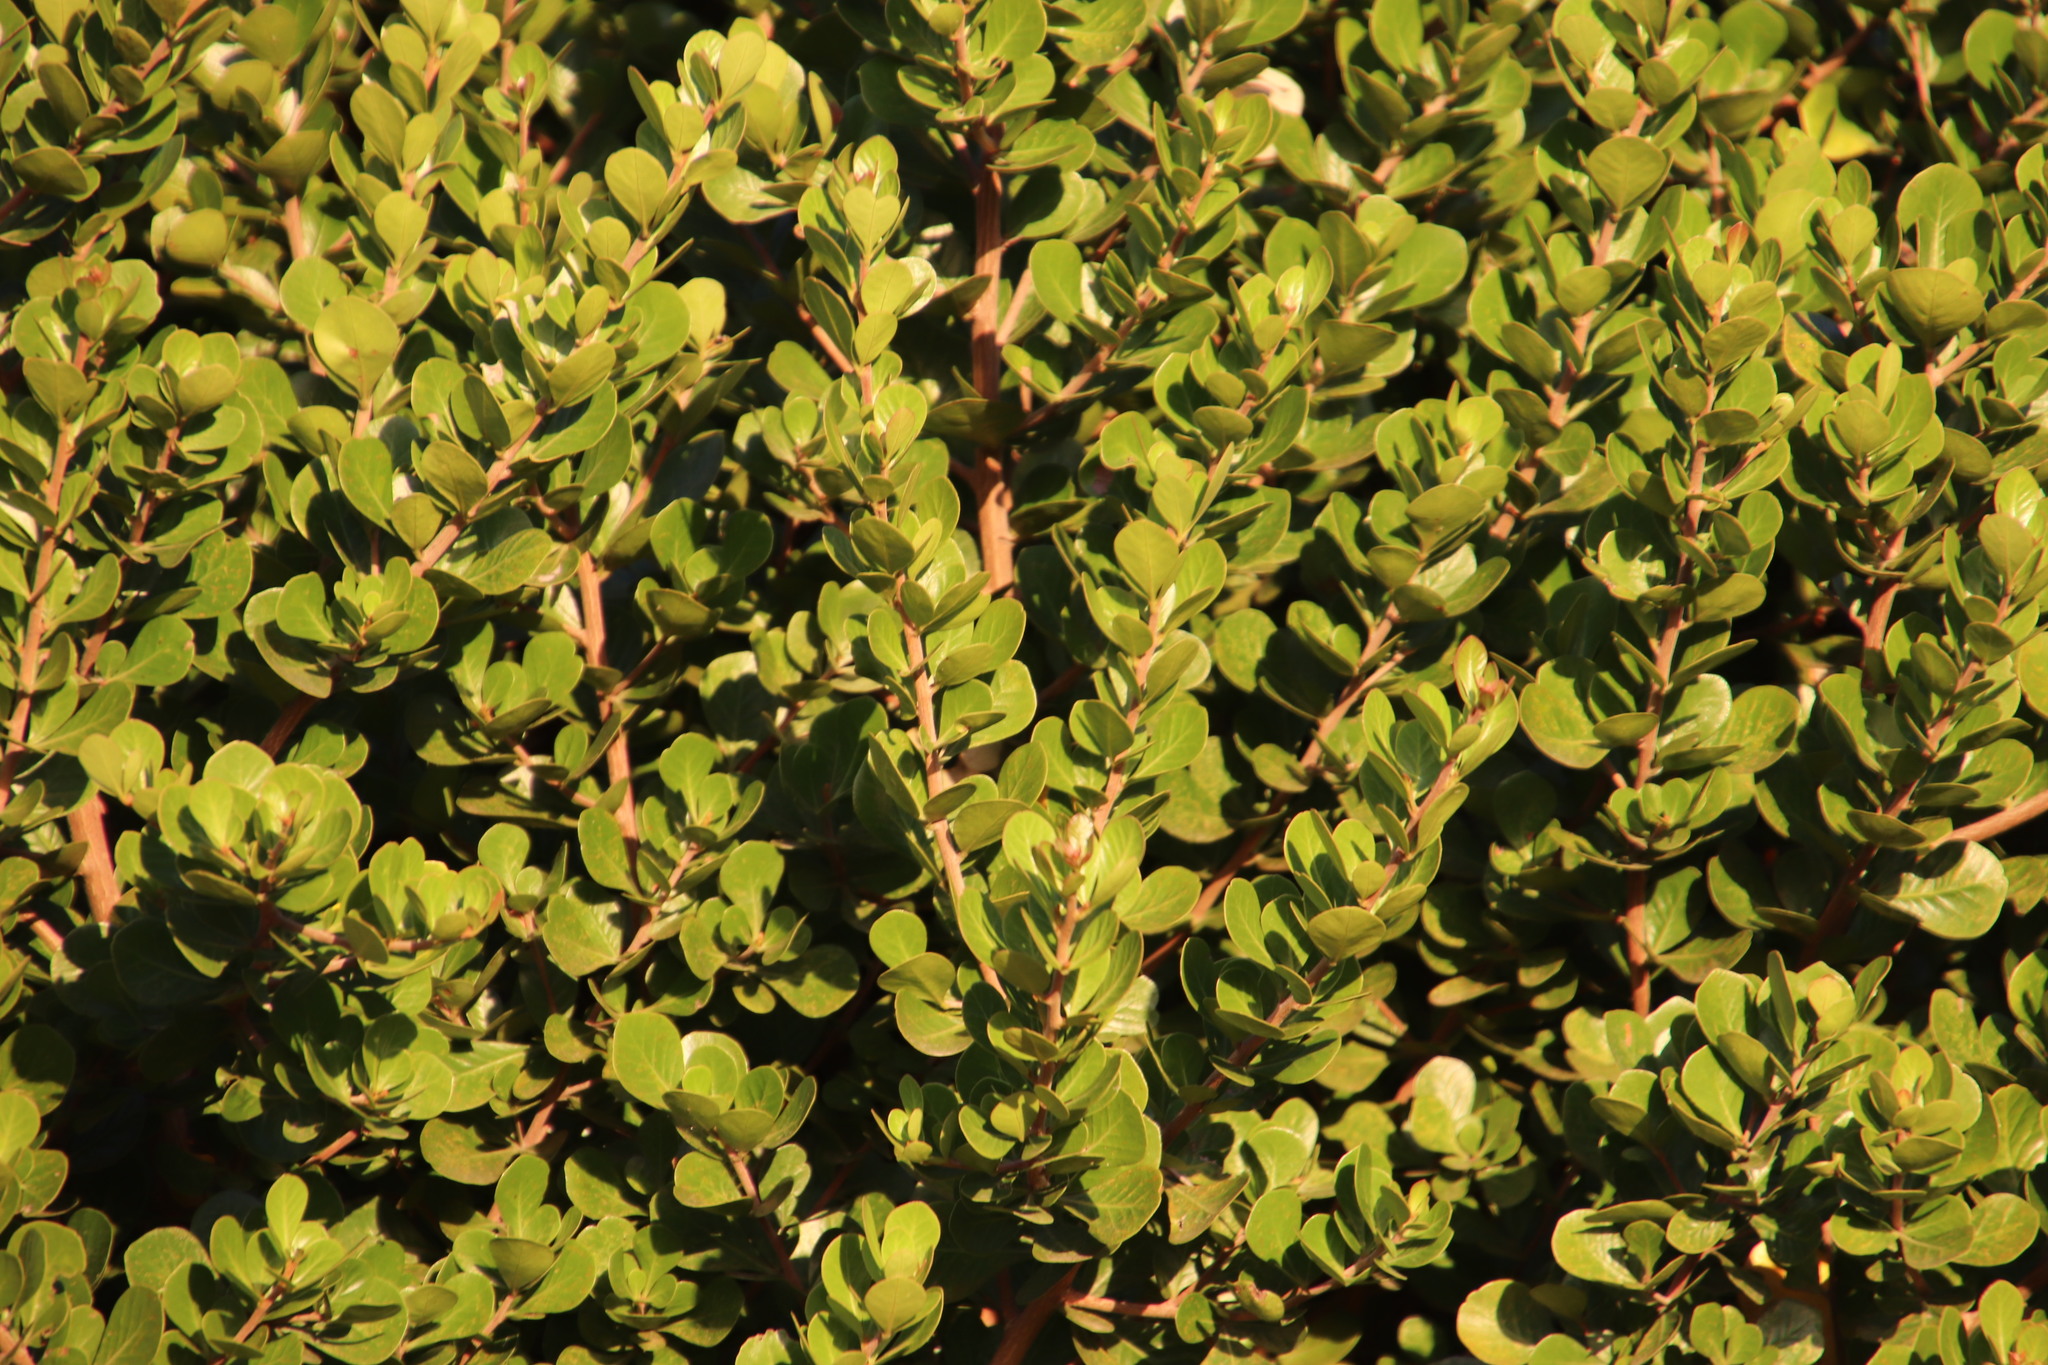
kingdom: Plantae
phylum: Tracheophyta
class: Magnoliopsida
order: Sapindales
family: Anacardiaceae
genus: Searsia
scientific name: Searsia lucida
